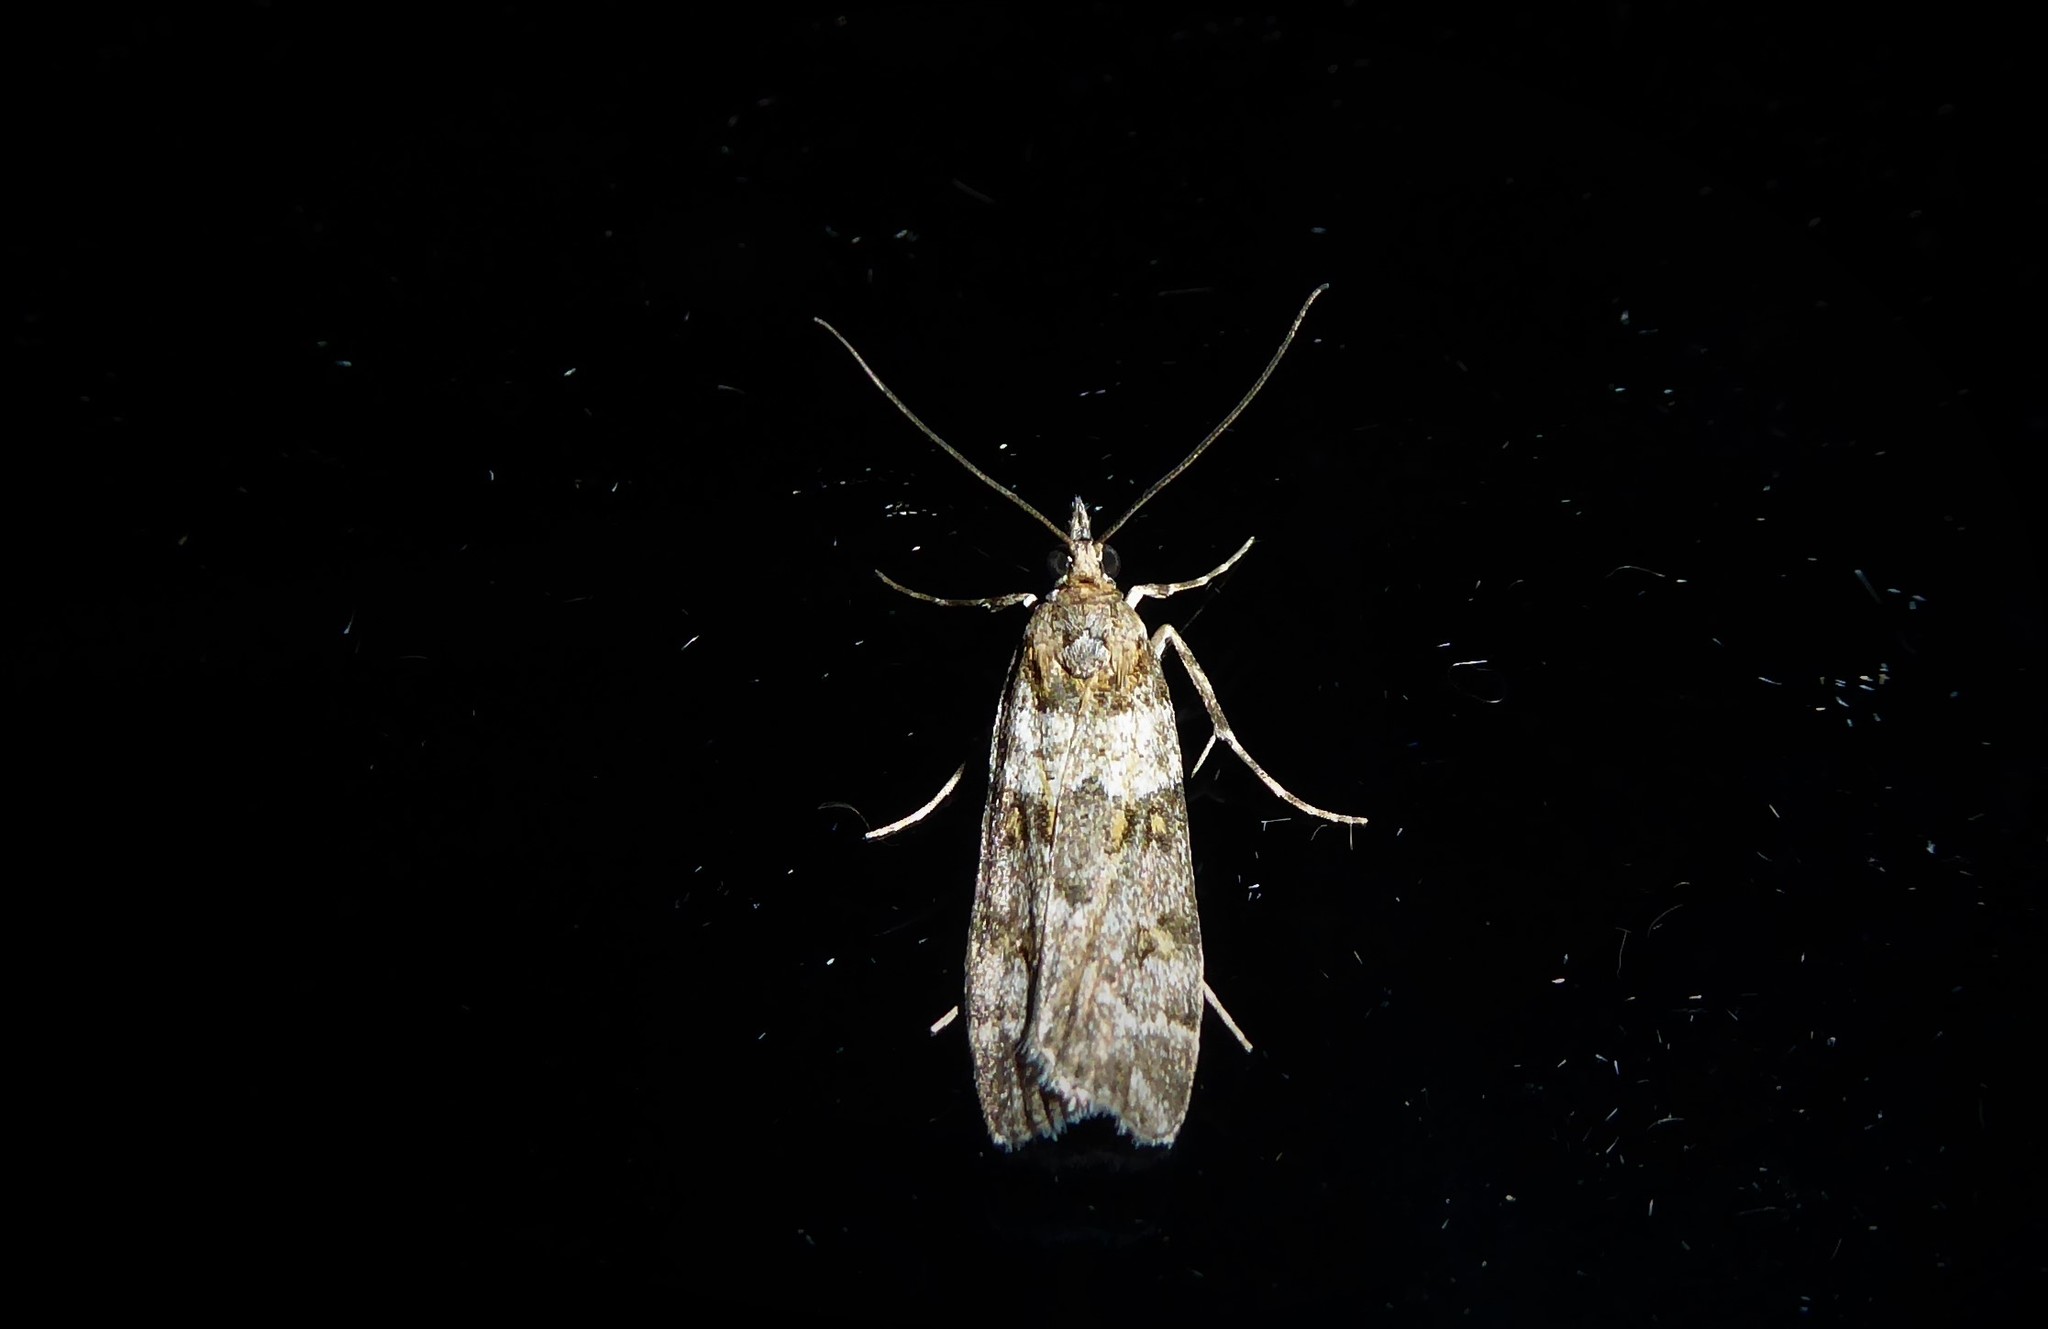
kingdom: Animalia
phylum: Arthropoda
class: Insecta
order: Lepidoptera
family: Crambidae
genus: Eudonia
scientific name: Eudonia diphtheralis
